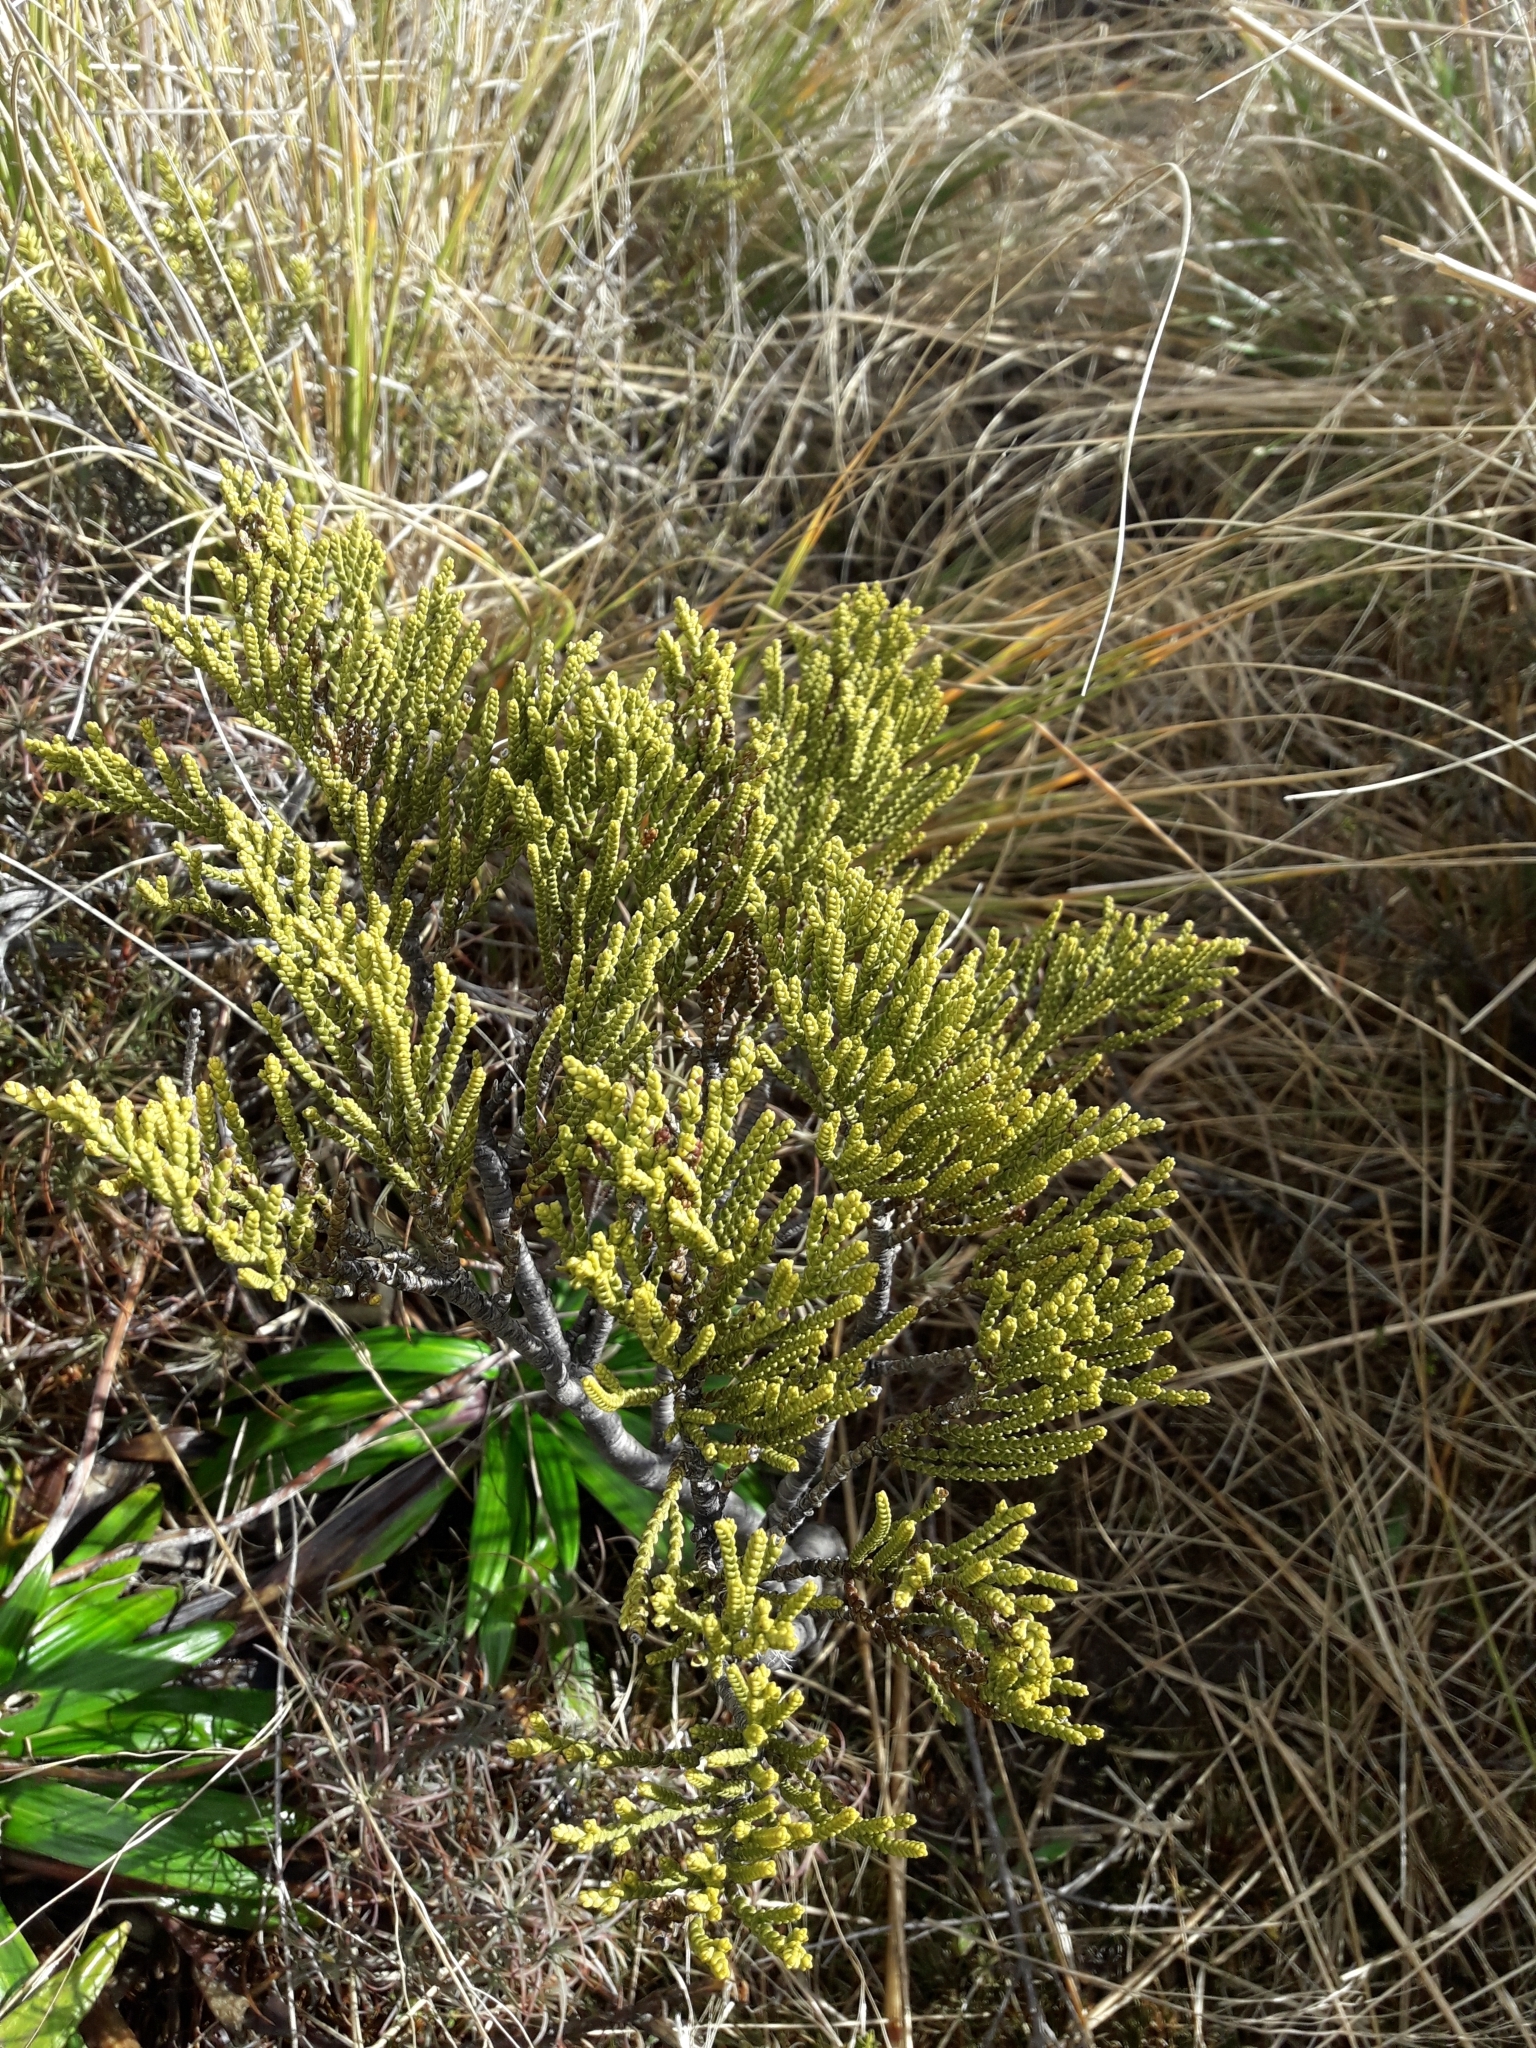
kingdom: Plantae
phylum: Tracheophyta
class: Magnoliopsida
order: Lamiales
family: Plantaginaceae
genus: Veronica
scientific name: Veronica tetragona
